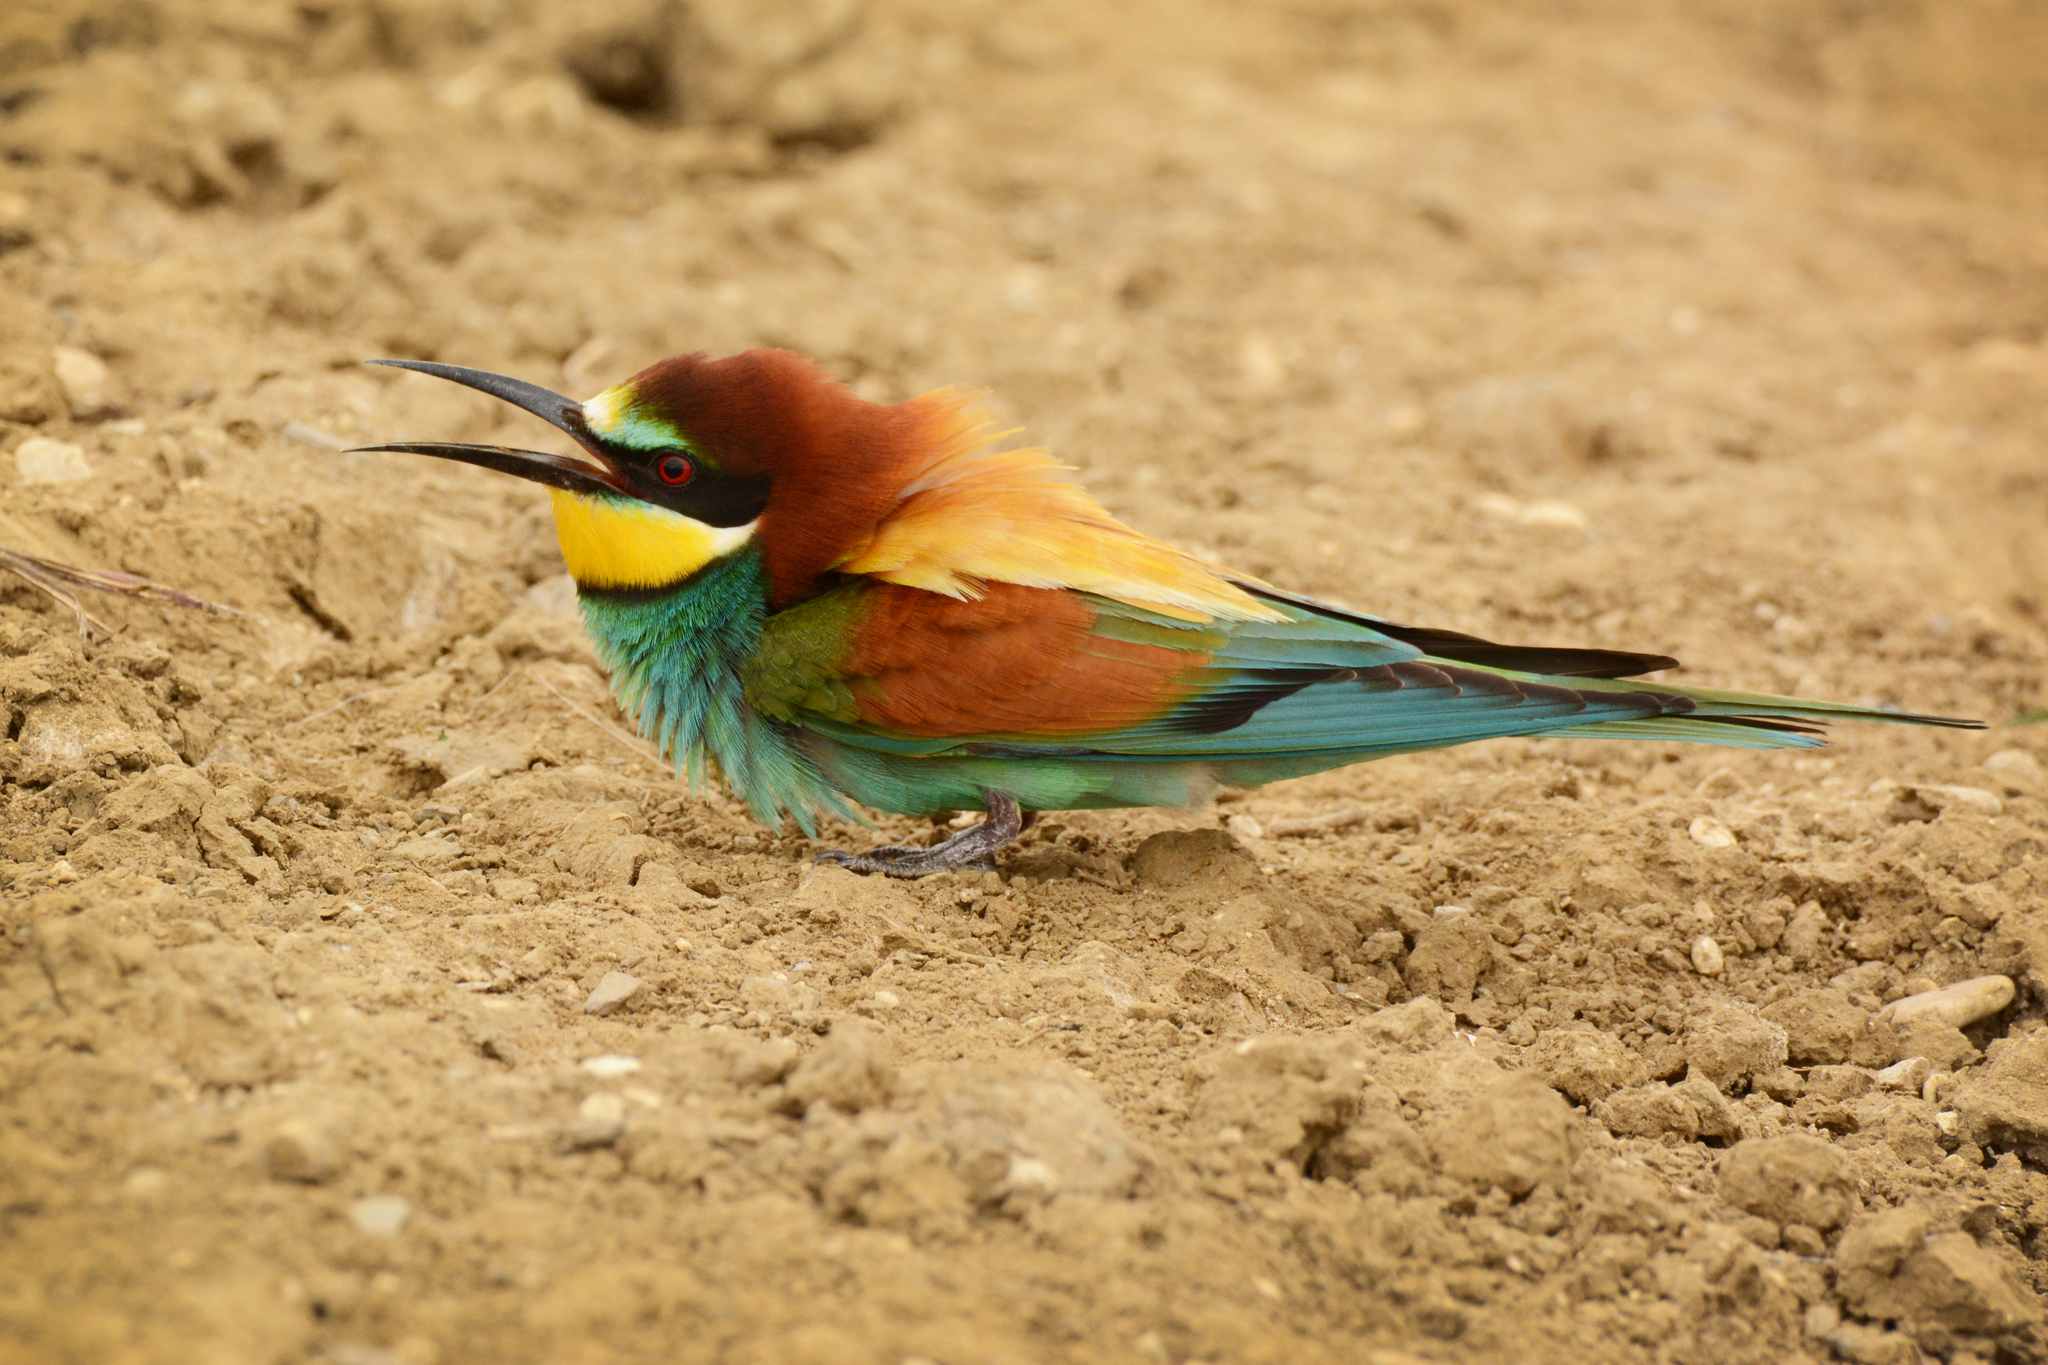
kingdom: Animalia
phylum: Chordata
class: Aves
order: Coraciiformes
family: Meropidae
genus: Merops
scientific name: Merops apiaster
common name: European bee-eater
